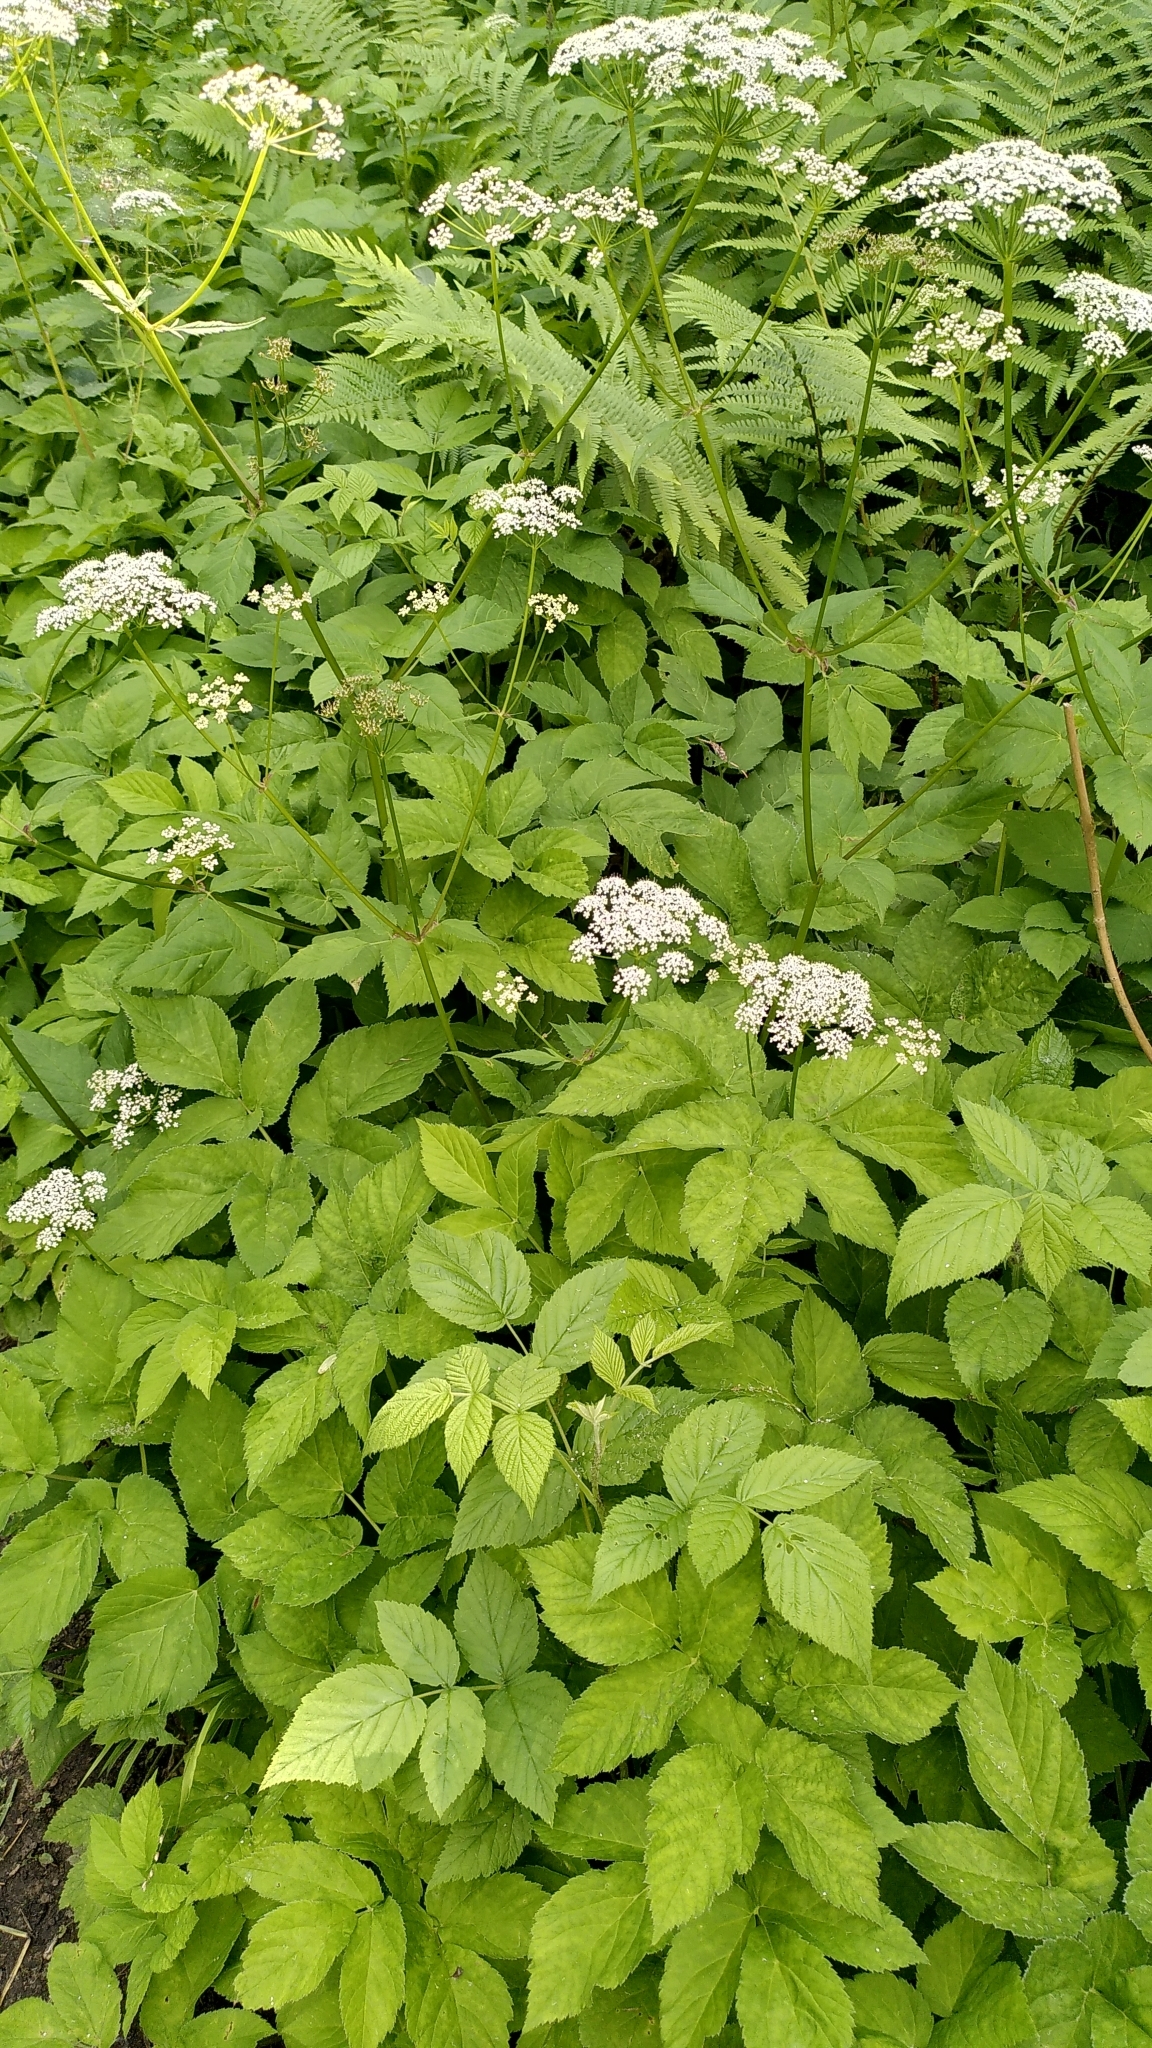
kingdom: Plantae
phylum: Tracheophyta
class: Magnoliopsida
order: Apiales
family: Apiaceae
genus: Aegopodium
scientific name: Aegopodium podagraria
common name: Ground-elder
